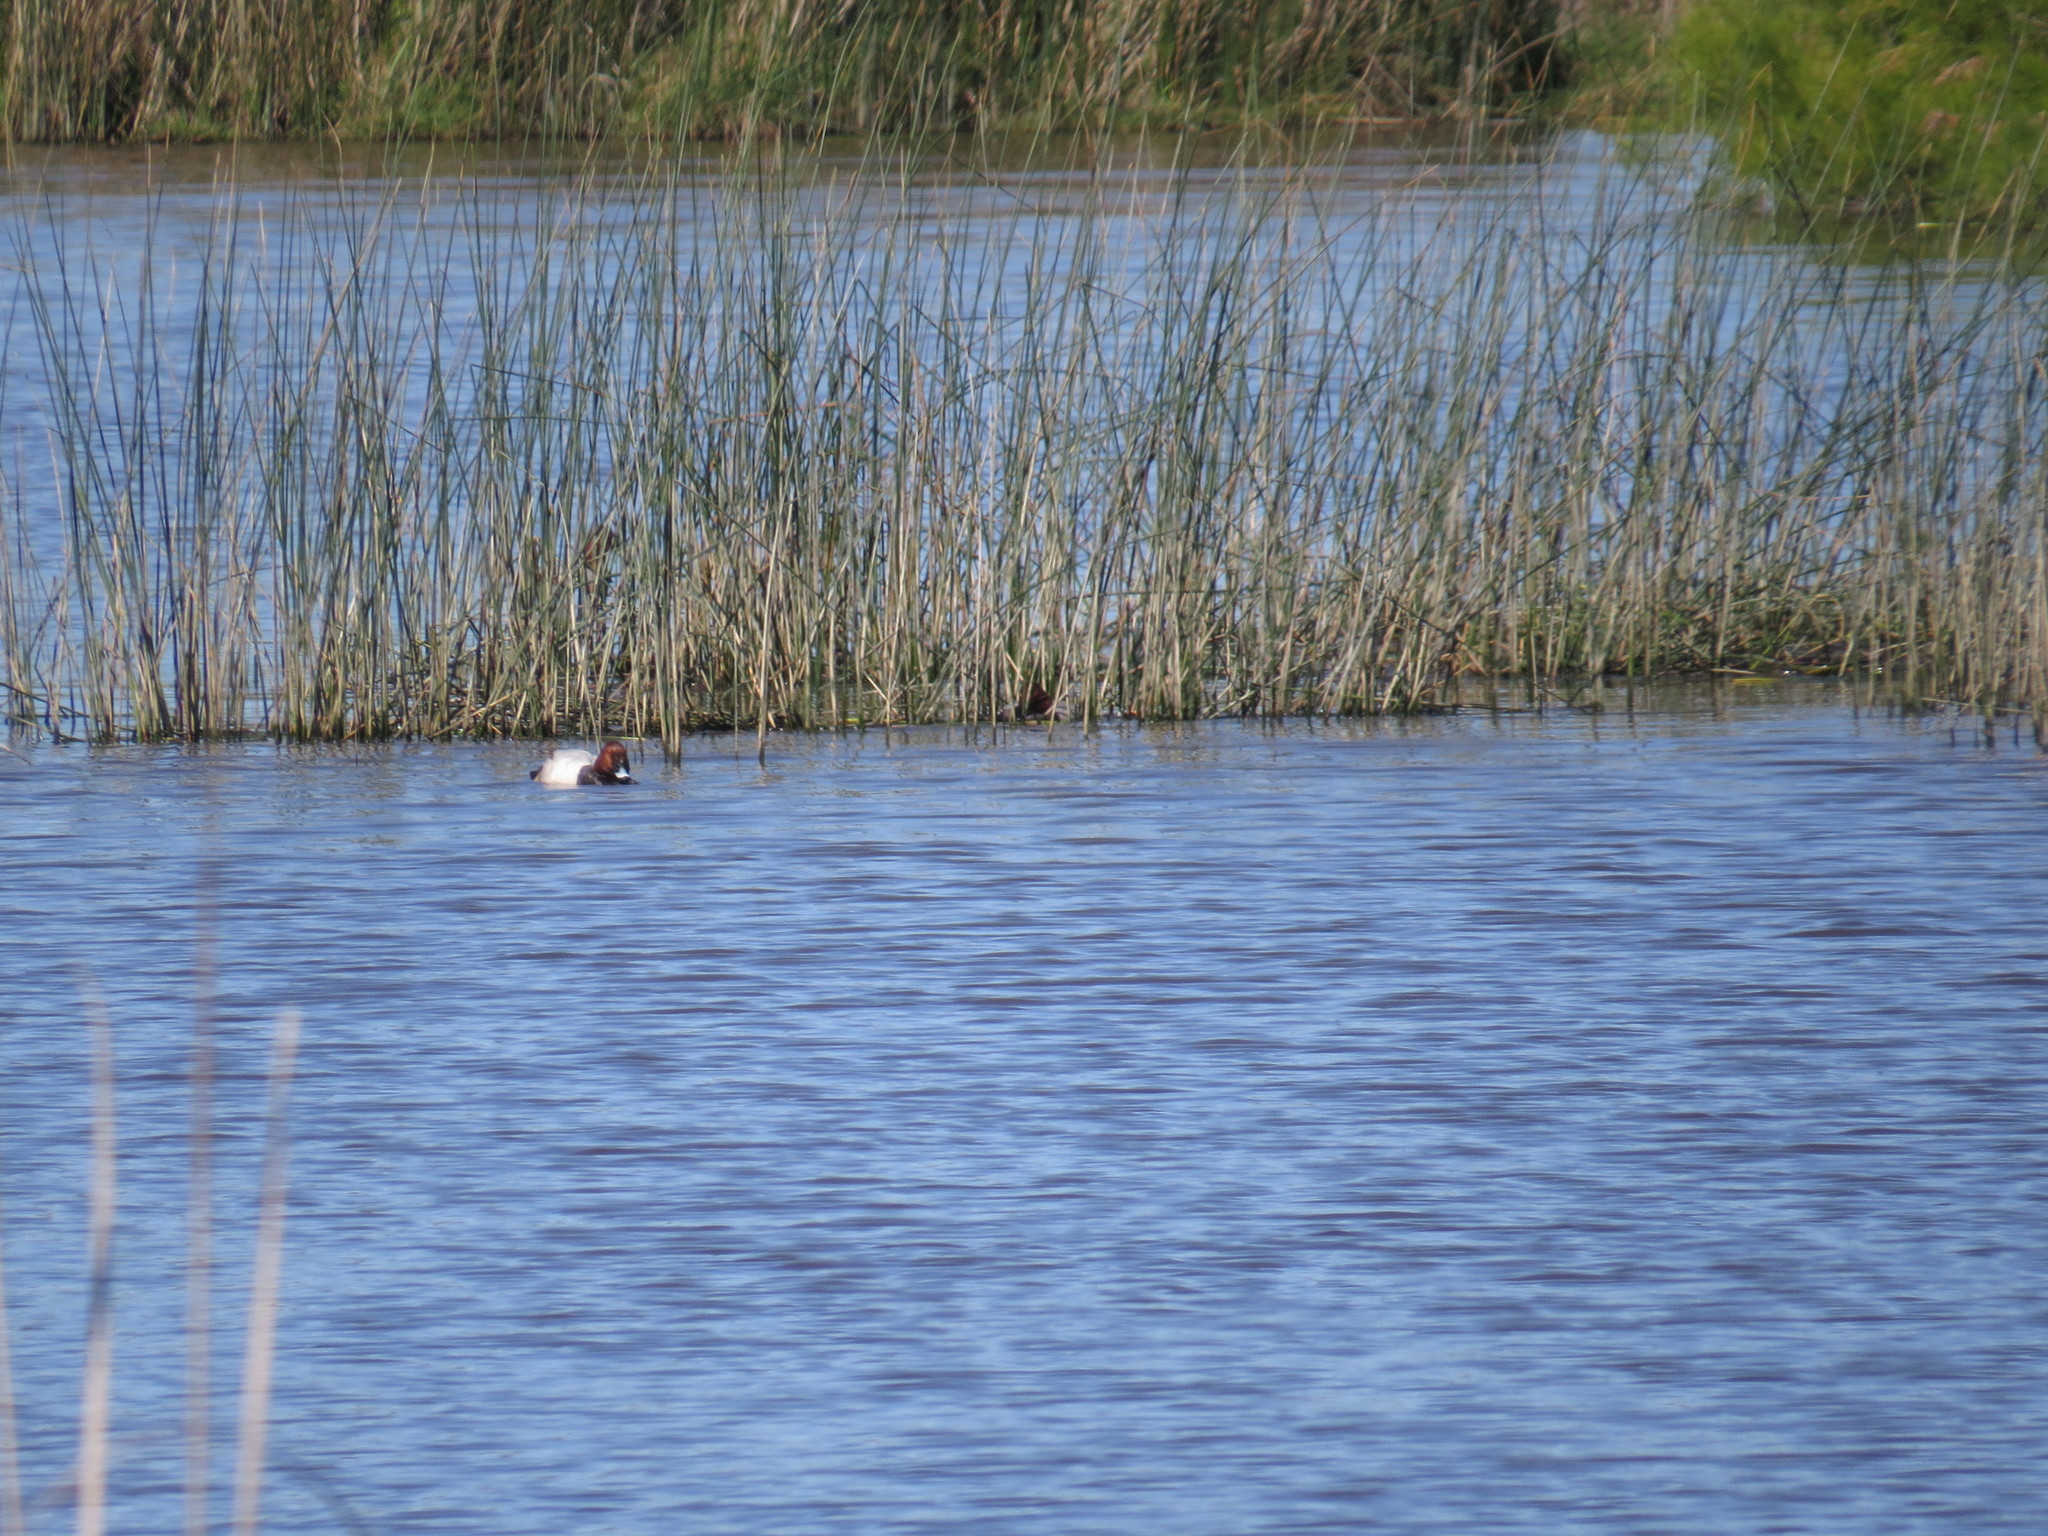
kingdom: Animalia
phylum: Chordata
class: Aves
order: Anseriformes
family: Anatidae
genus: Aythya
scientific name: Aythya ferina
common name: Common pochard
